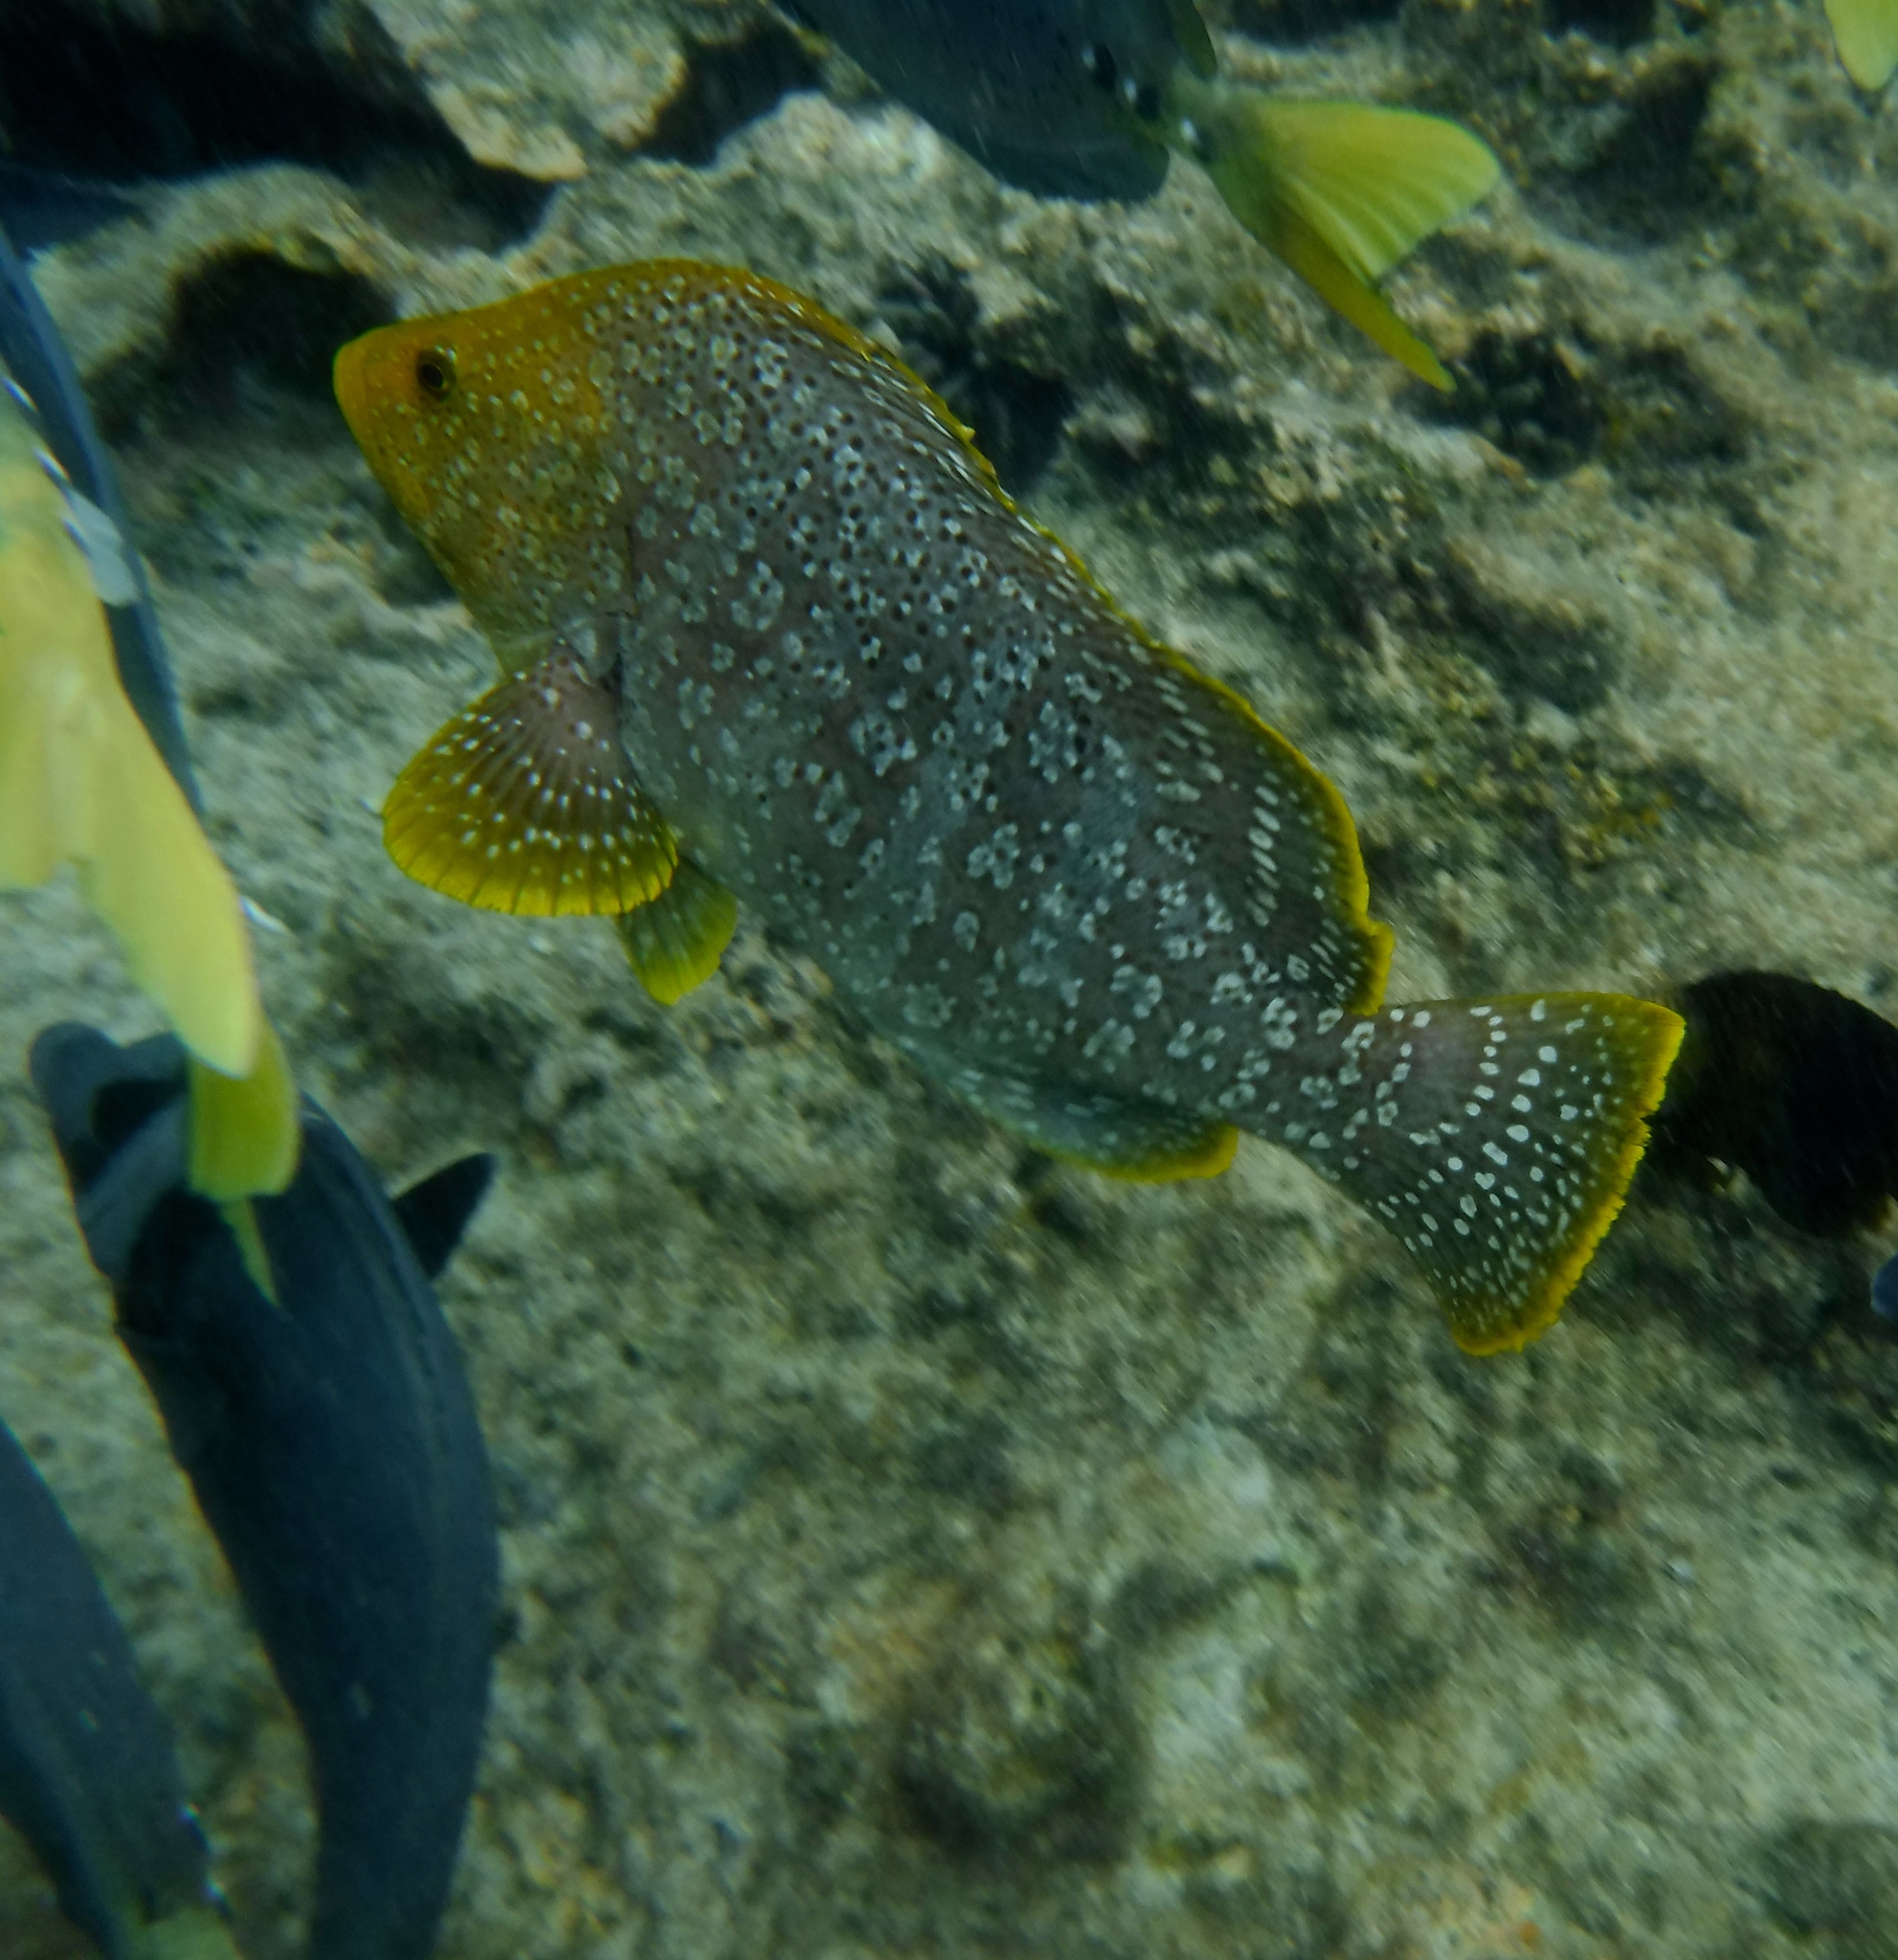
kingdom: Animalia
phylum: Chordata
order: Perciformes
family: Serranidae
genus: Dermatolepis
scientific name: Dermatolepis dermatolepis
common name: Leather bass
